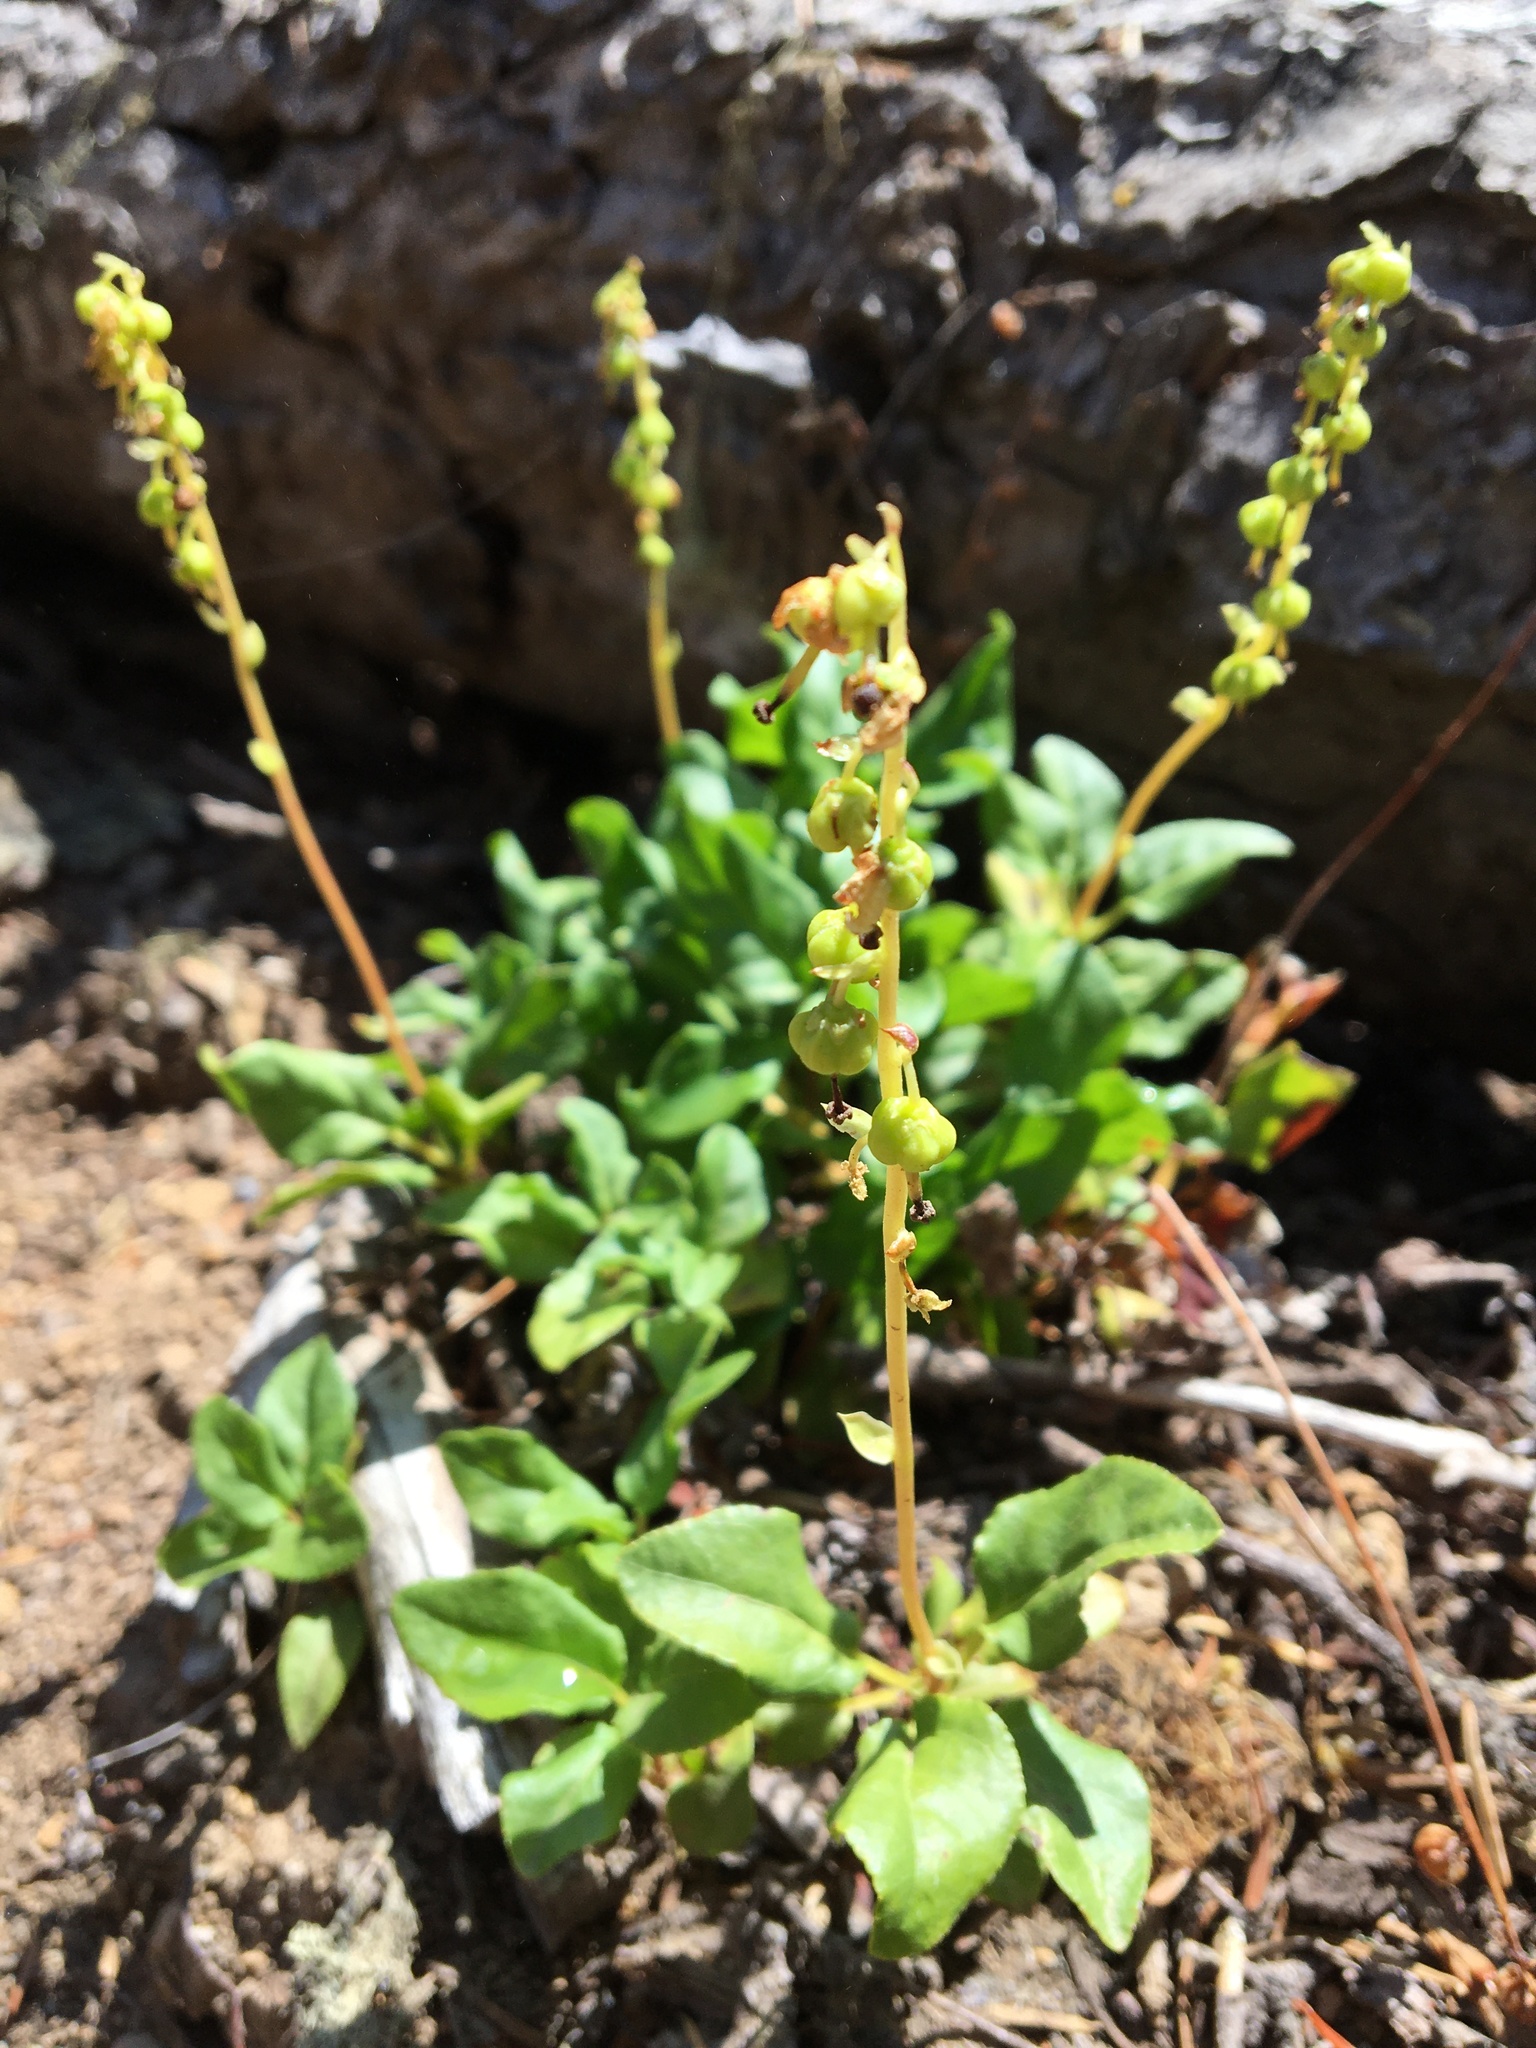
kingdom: Plantae
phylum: Tracheophyta
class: Magnoliopsida
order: Ericales
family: Ericaceae
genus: Orthilia
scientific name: Orthilia secunda
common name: One-sided orthilia
